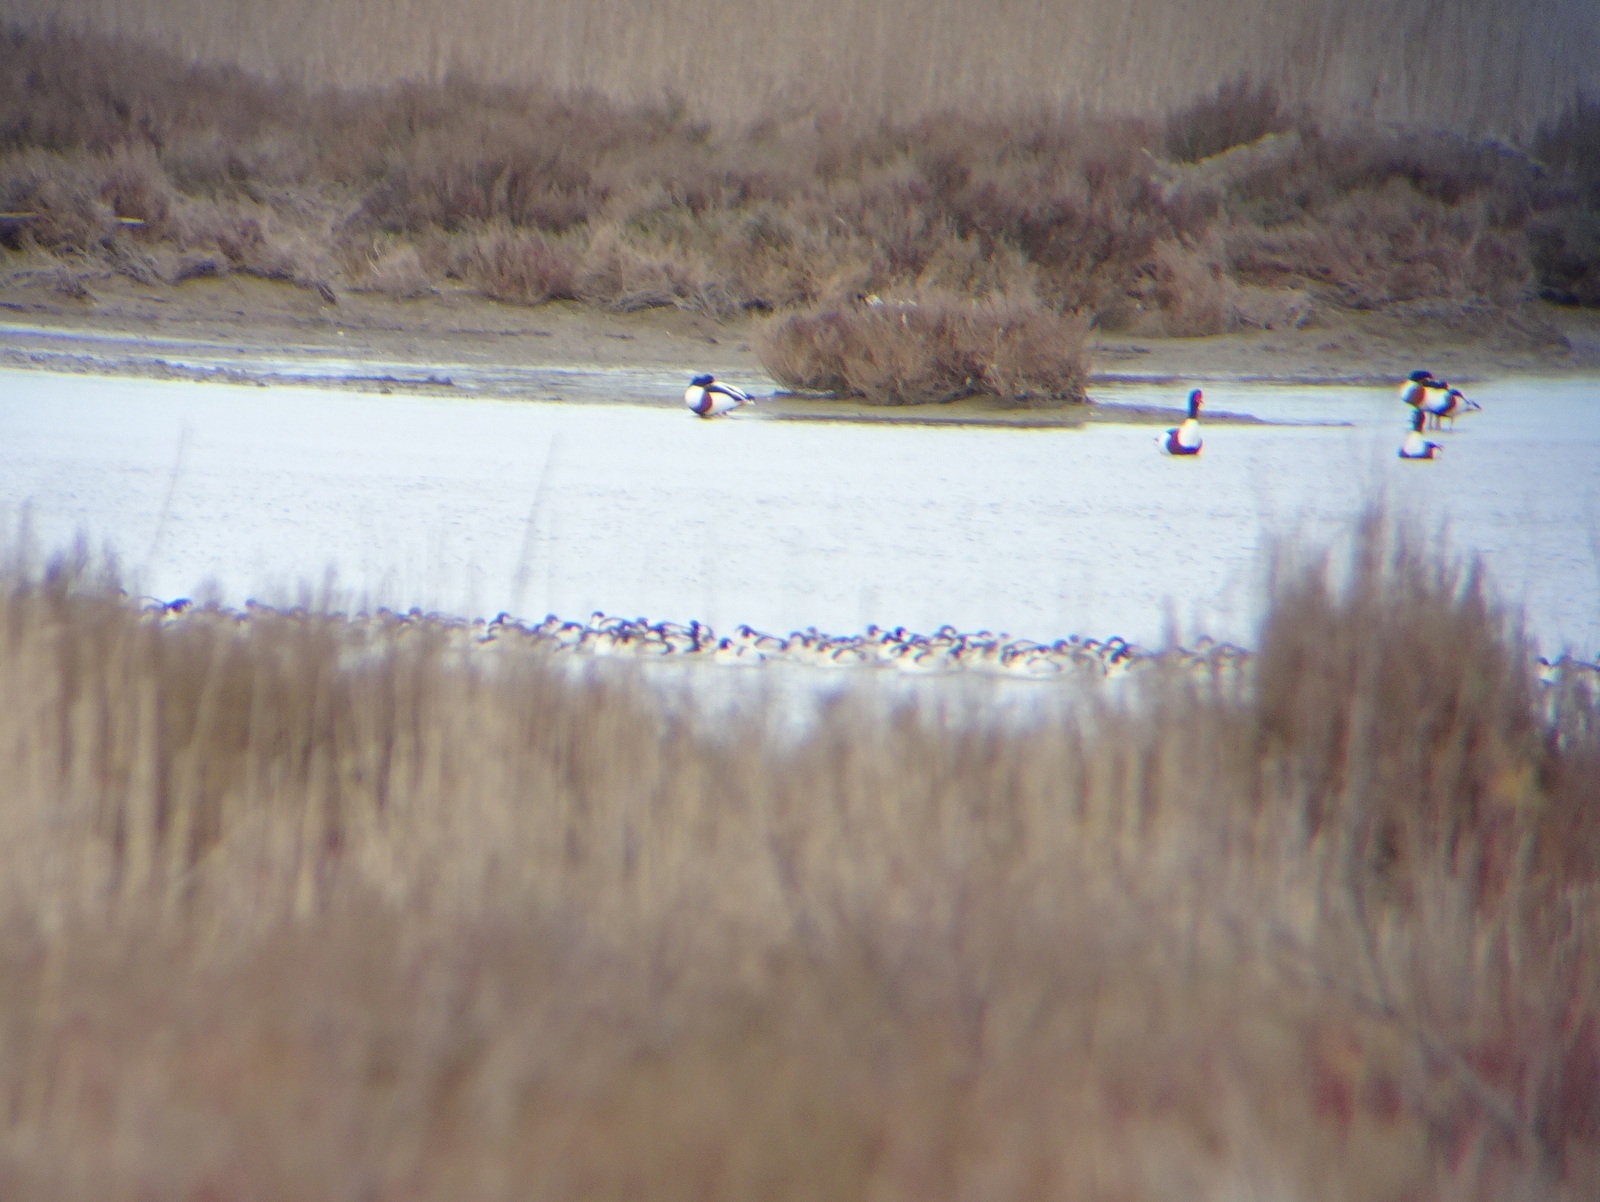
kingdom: Animalia
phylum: Chordata
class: Aves
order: Charadriiformes
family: Recurvirostridae
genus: Recurvirostra
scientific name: Recurvirostra avosetta
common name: Pied avocet
